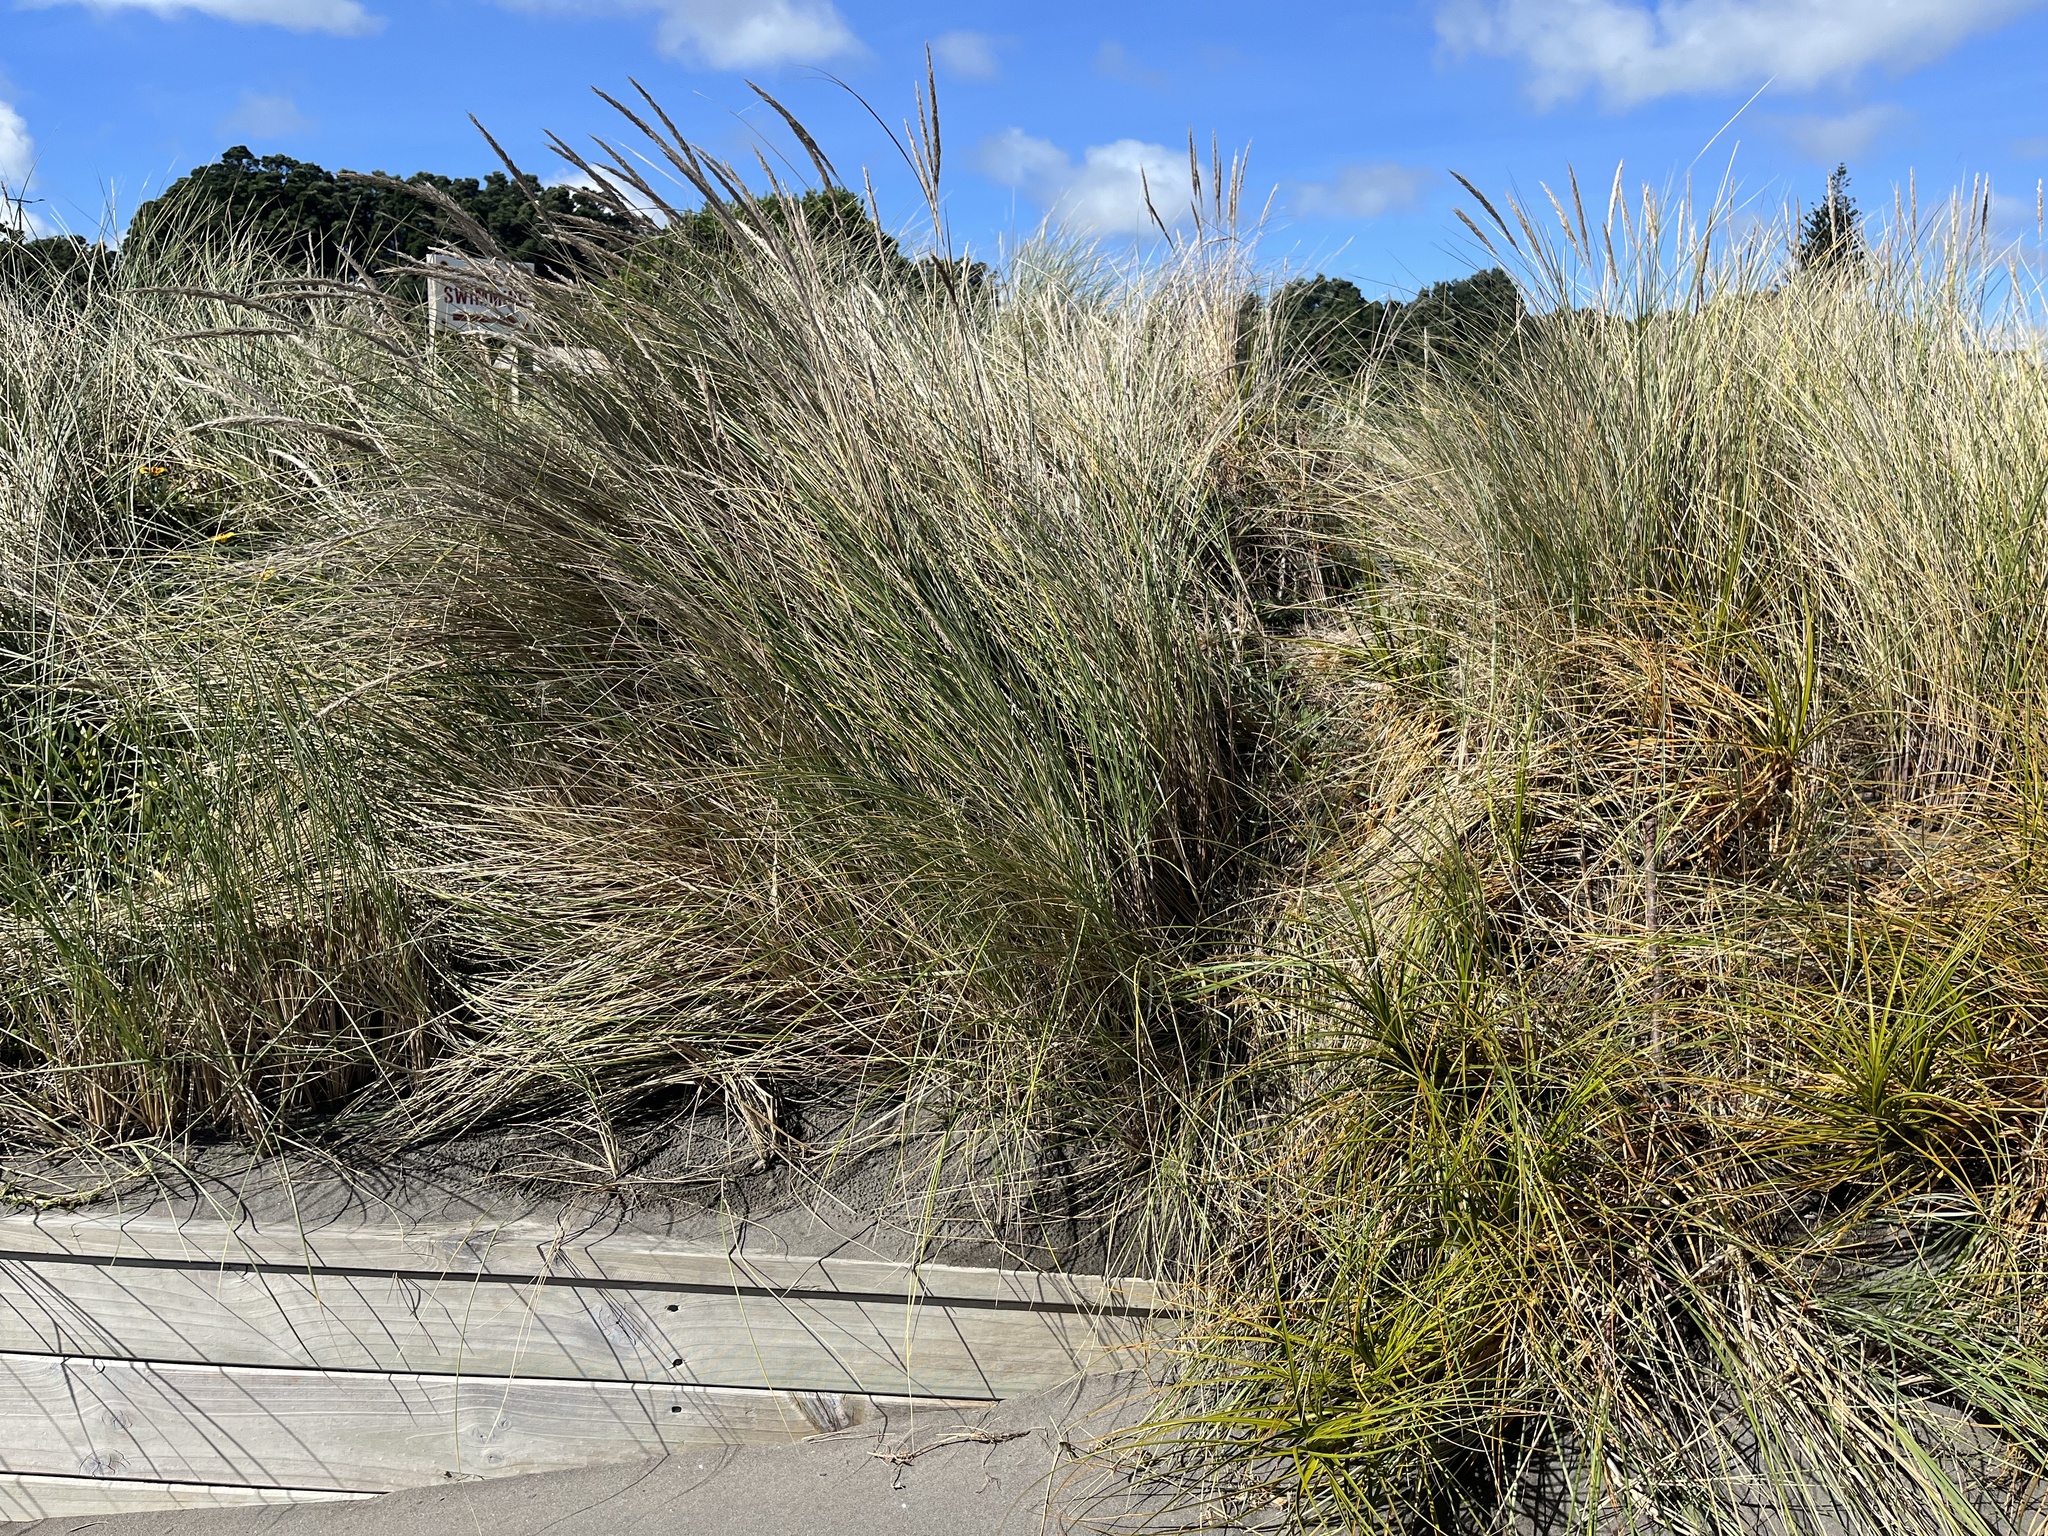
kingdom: Plantae
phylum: Tracheophyta
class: Liliopsida
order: Poales
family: Poaceae
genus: Calamagrostis
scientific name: Calamagrostis arenaria
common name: European beachgrass
